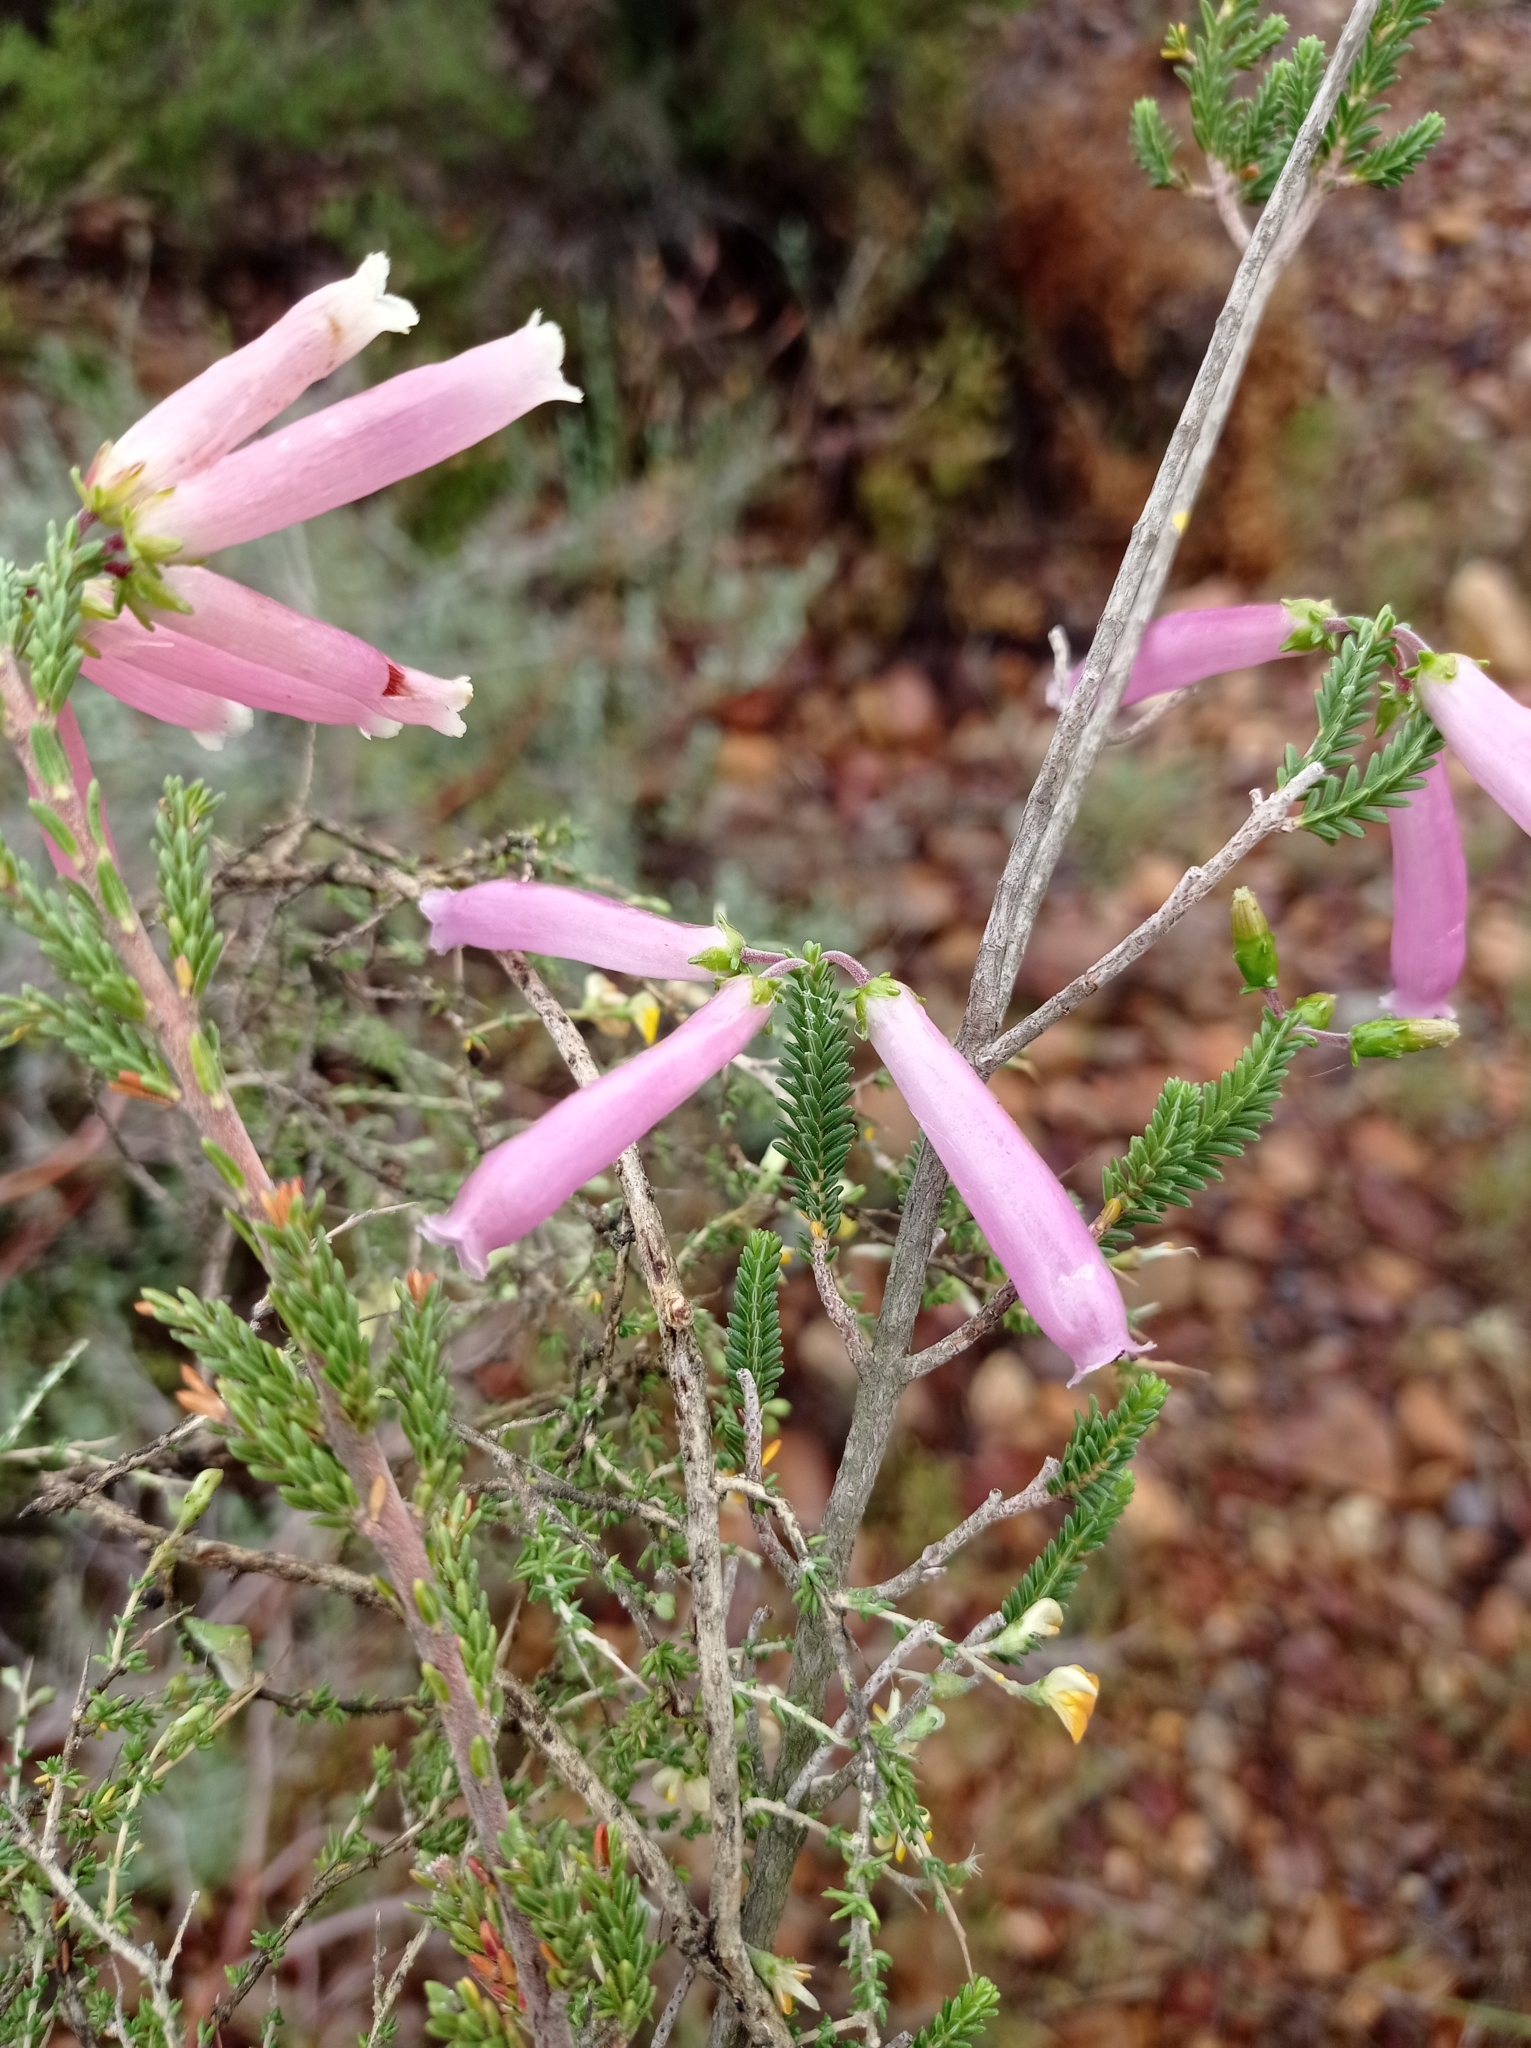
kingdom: Plantae
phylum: Tracheophyta
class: Magnoliopsida
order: Ericales
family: Ericaceae
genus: Erica
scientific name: Erica prolata
